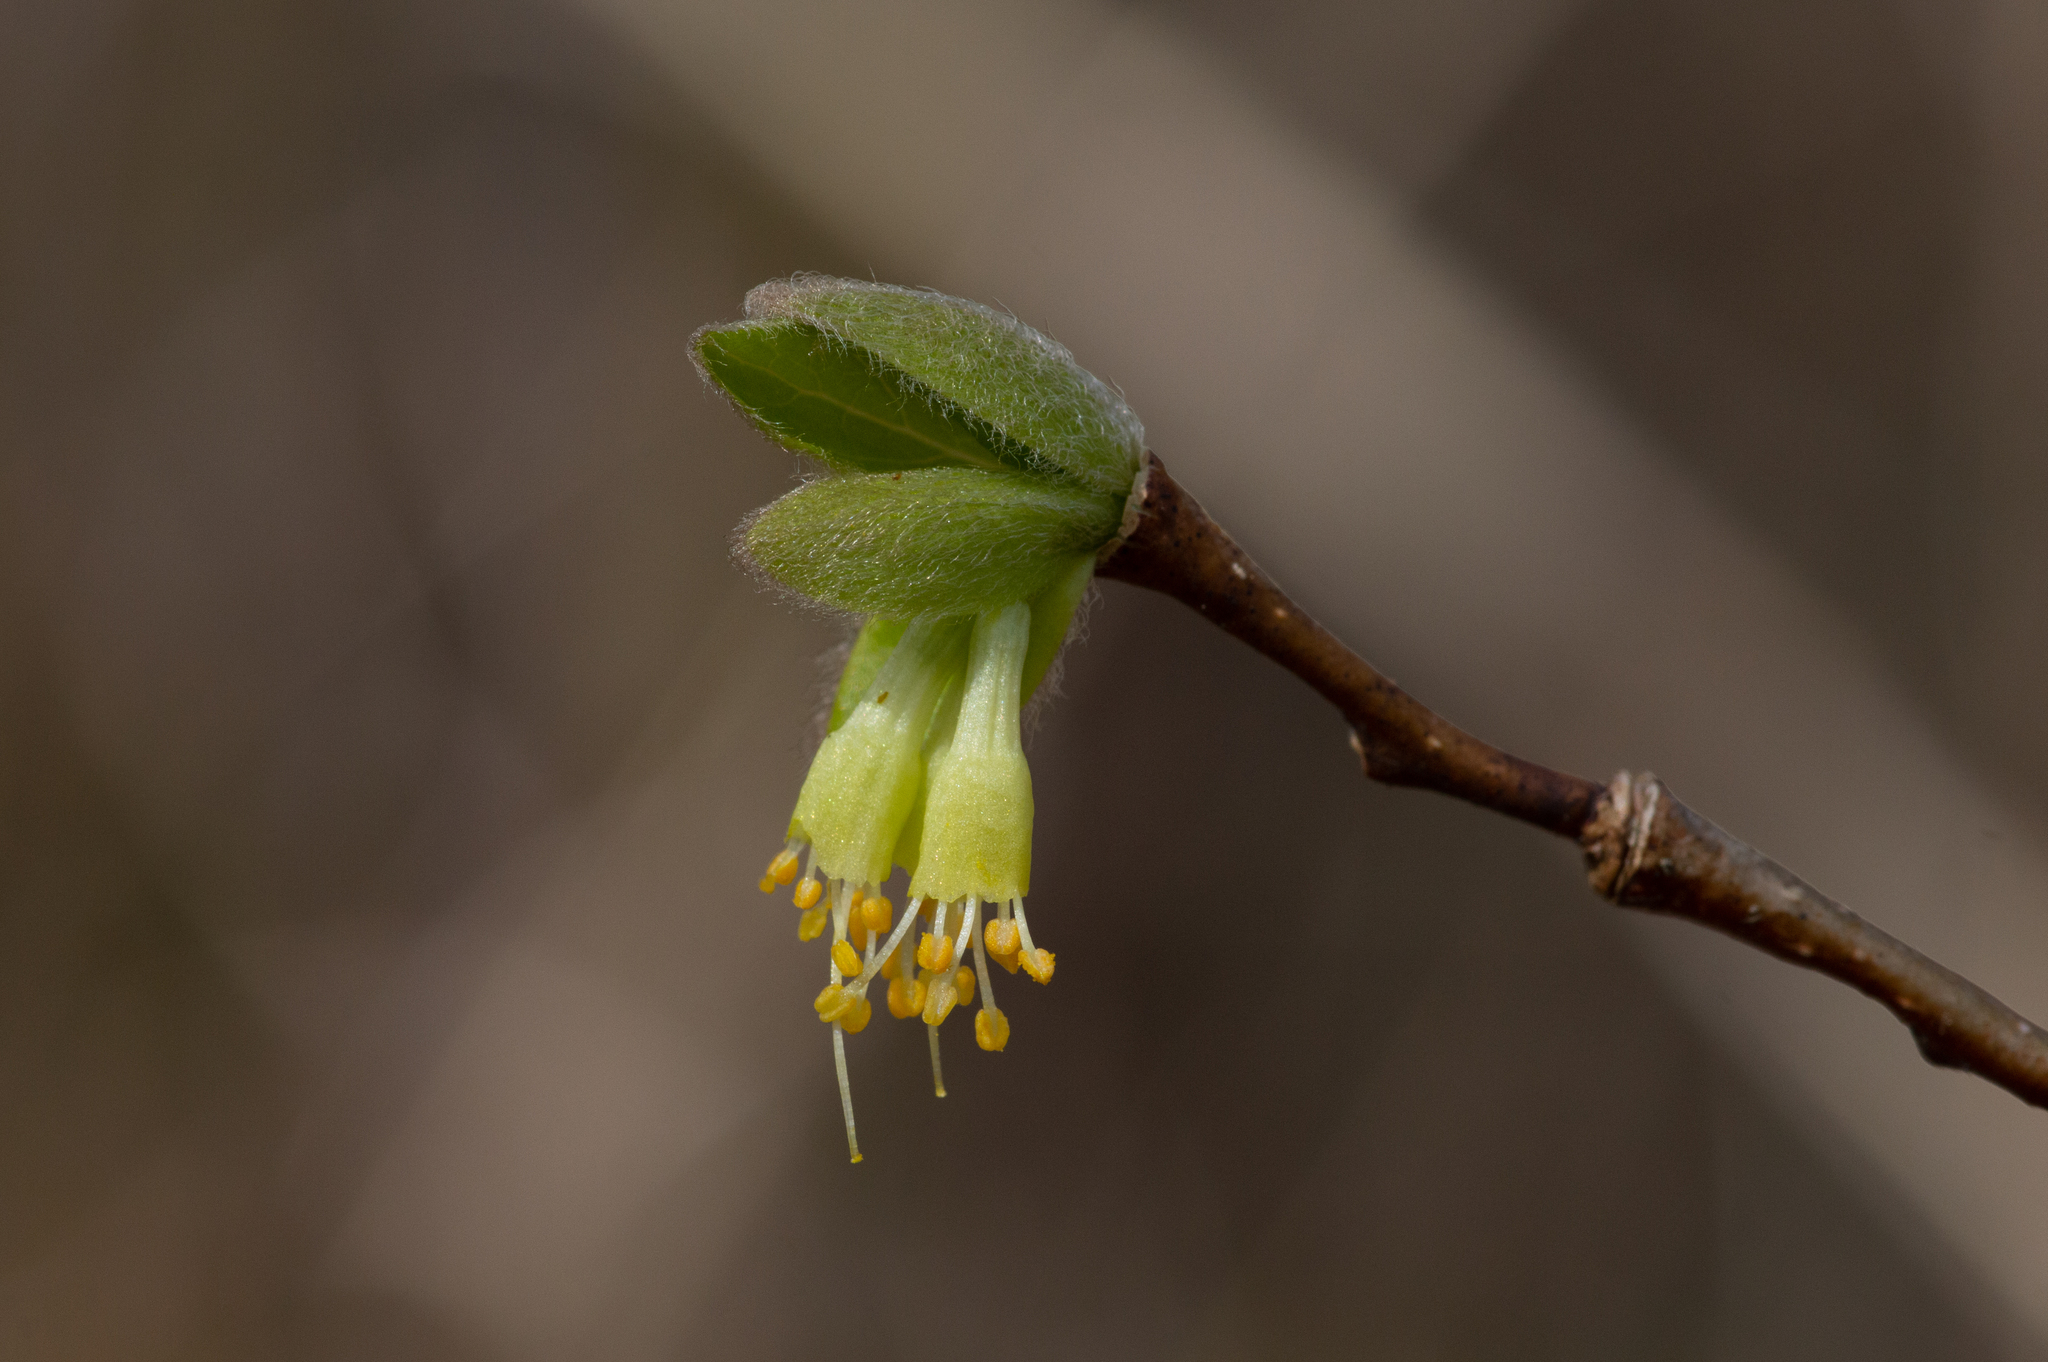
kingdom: Plantae
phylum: Tracheophyta
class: Magnoliopsida
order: Malvales
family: Thymelaeaceae
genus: Dirca
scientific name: Dirca palustris
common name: Leatherwood
